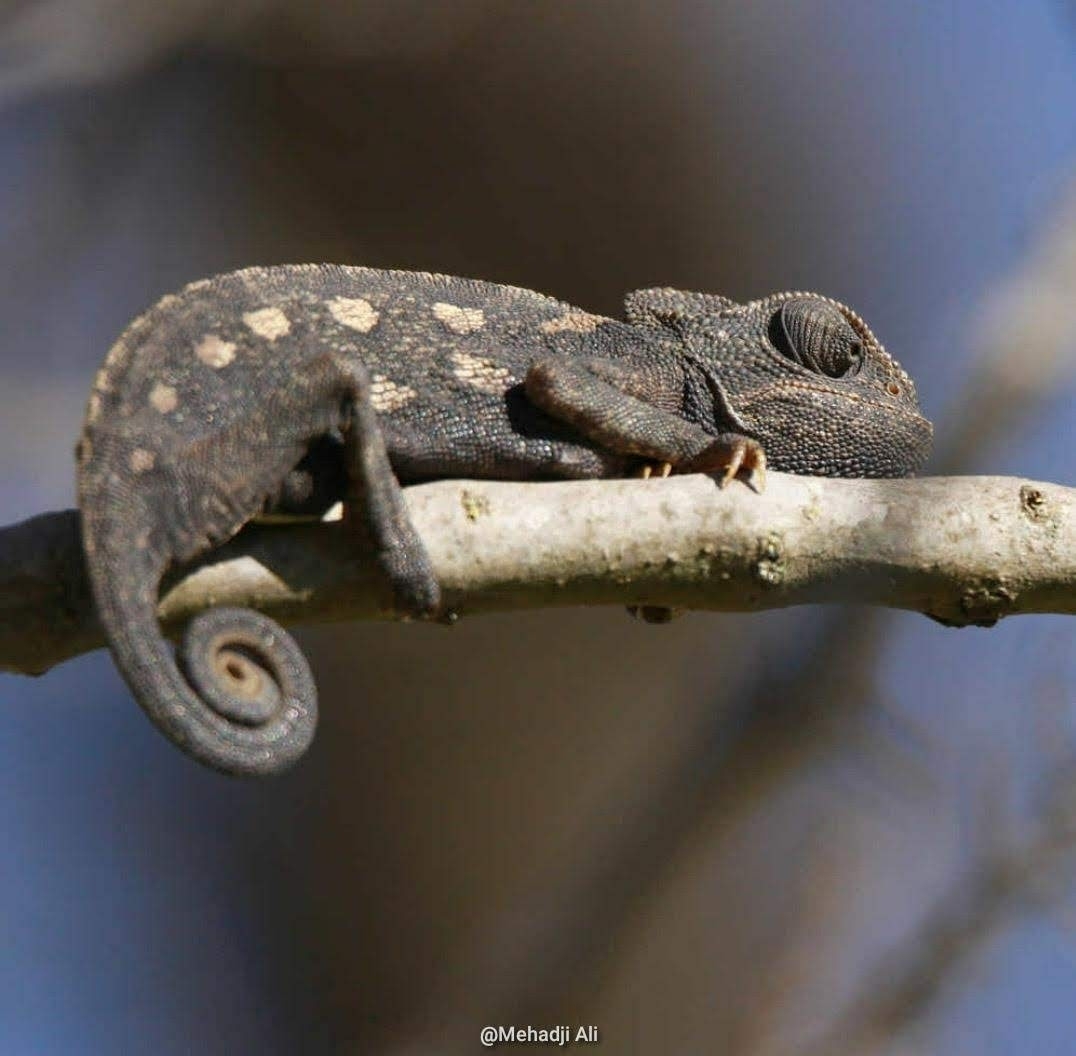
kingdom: Animalia
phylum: Chordata
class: Squamata
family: Chamaeleonidae
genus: Chamaeleo
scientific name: Chamaeleo chamaeleon
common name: Mediterranean chameleon
